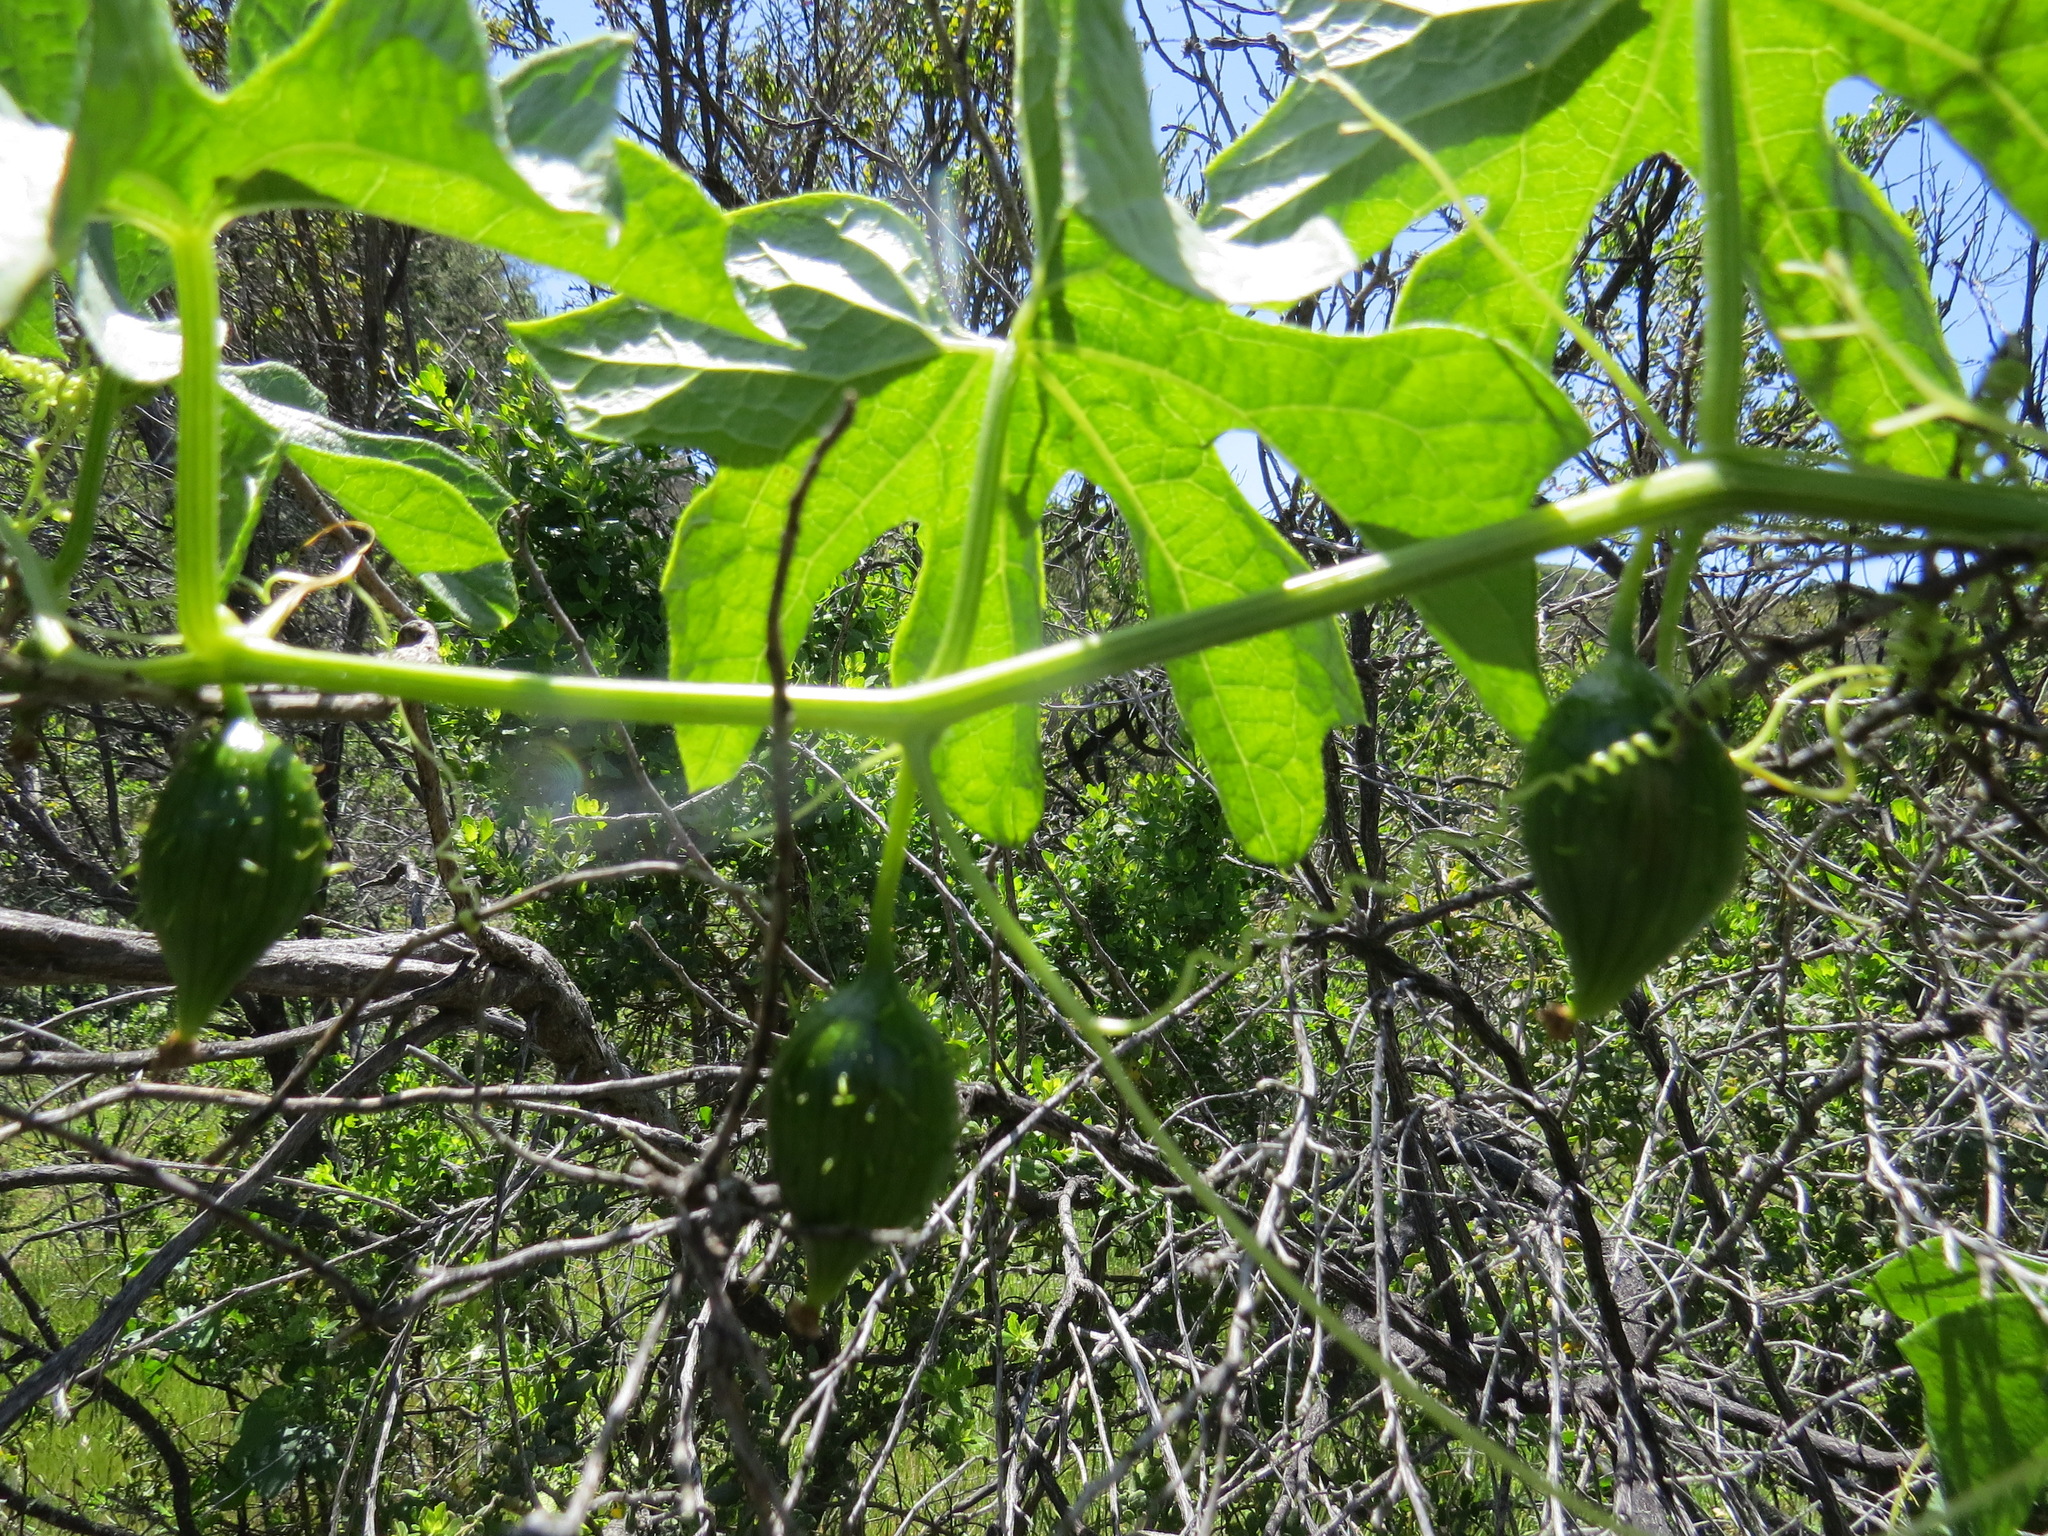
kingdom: Plantae
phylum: Tracheophyta
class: Magnoliopsida
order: Cucurbitales
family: Cucurbitaceae
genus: Marah
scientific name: Marah oregana
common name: Coastal manroot
